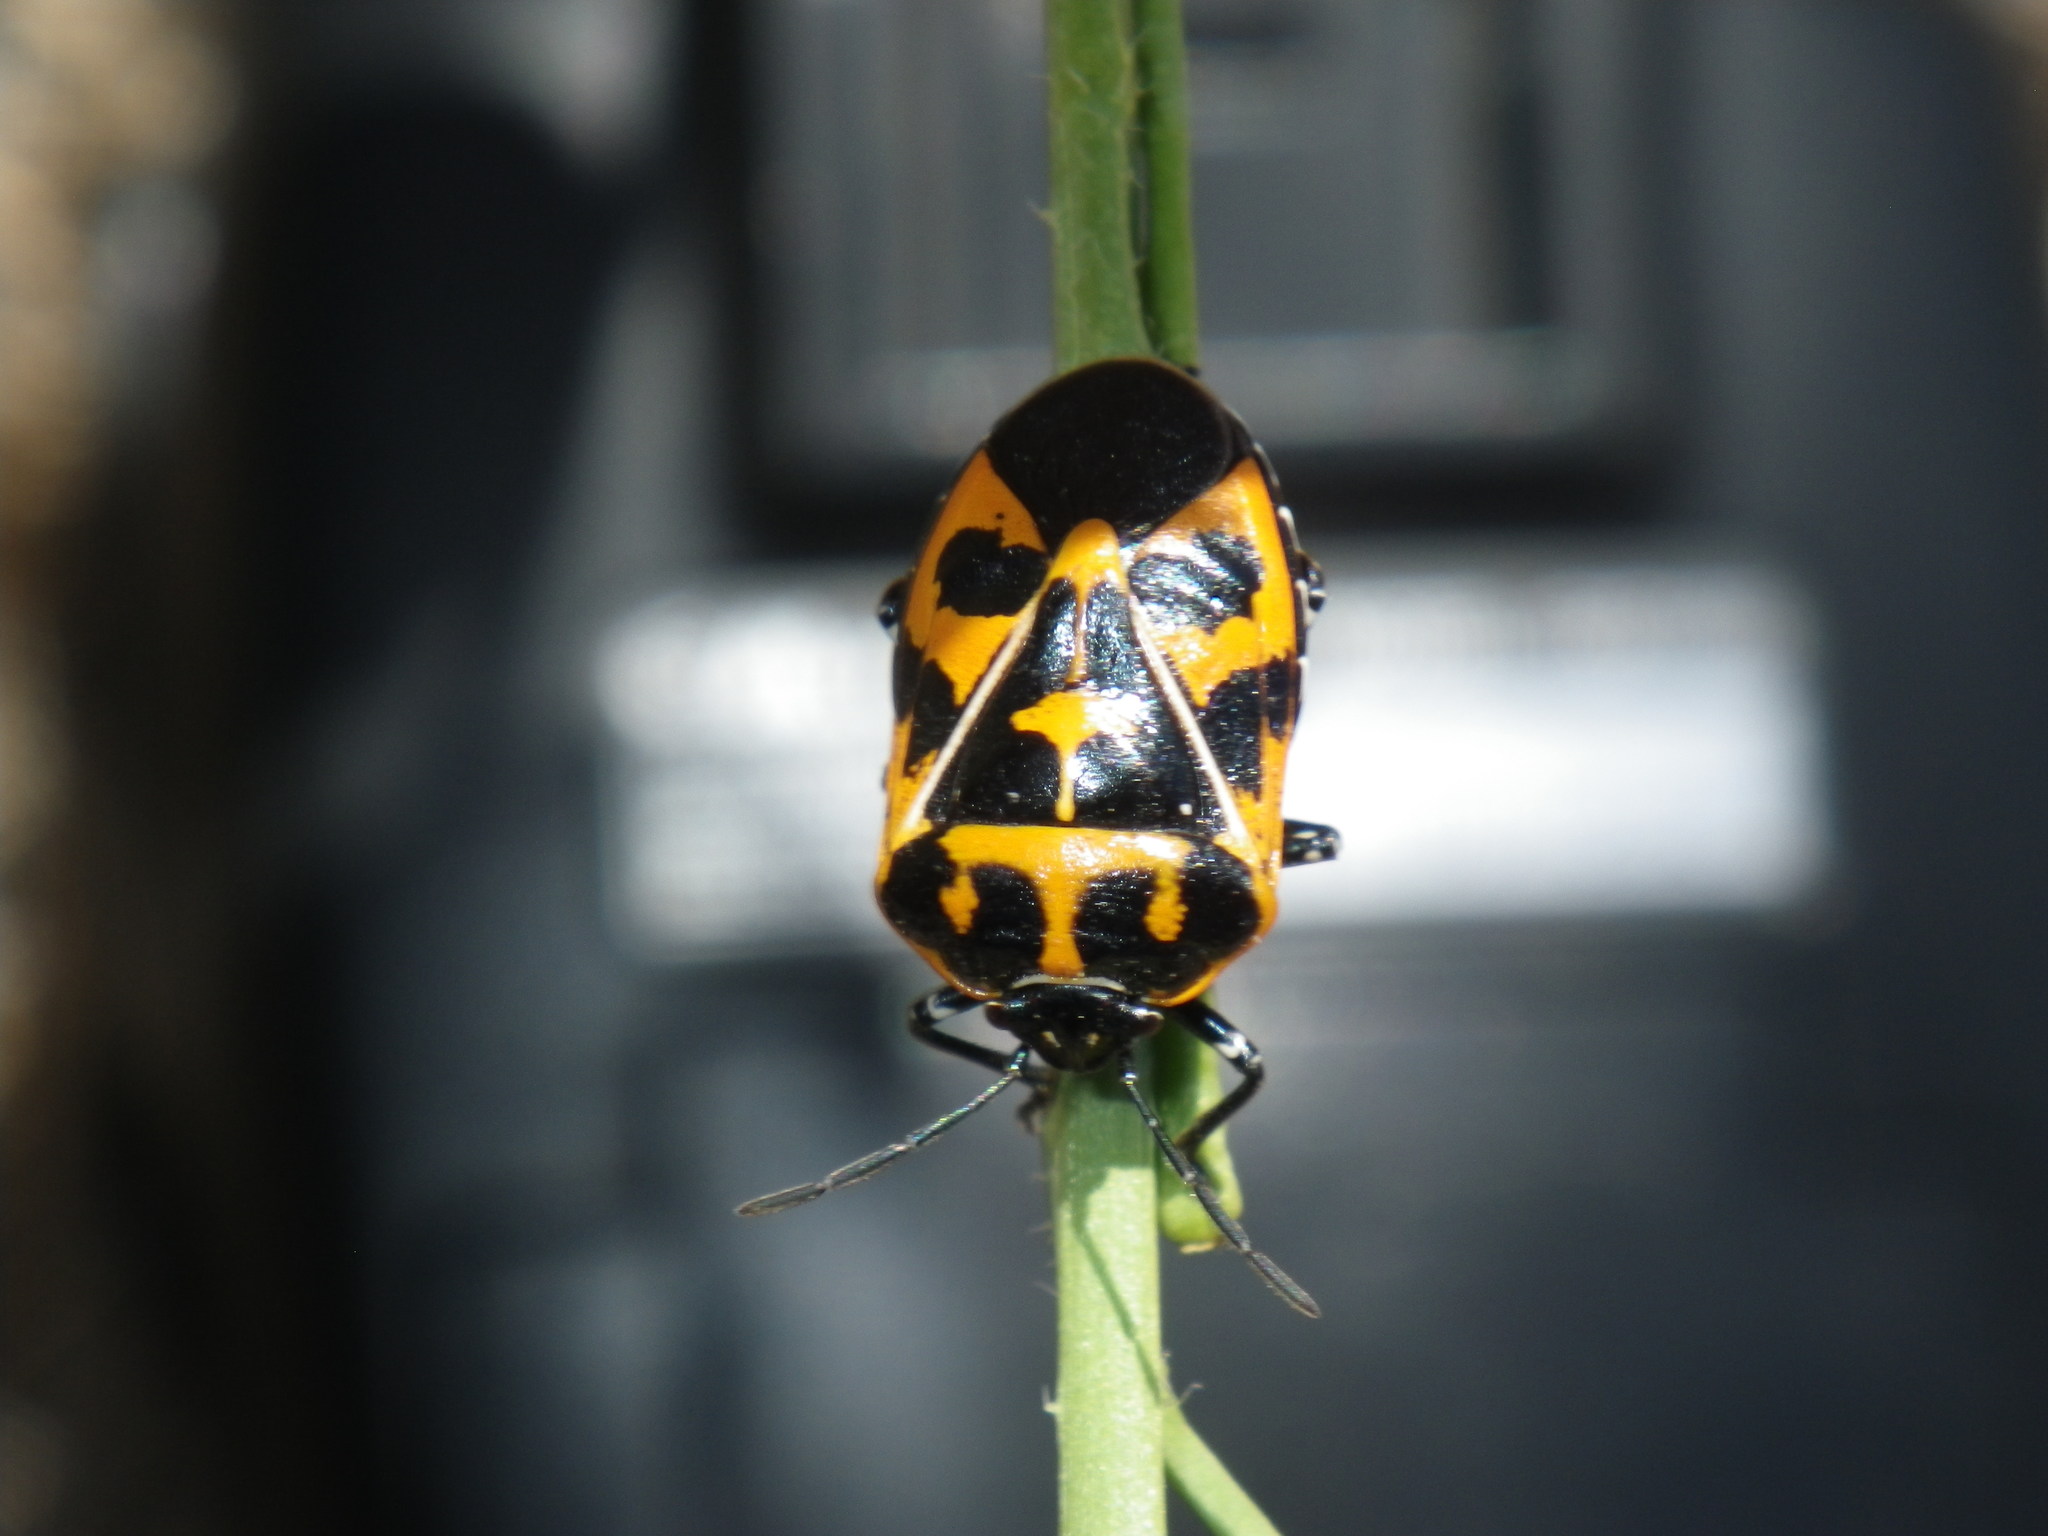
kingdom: Animalia
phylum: Arthropoda
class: Insecta
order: Hemiptera
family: Pentatomidae
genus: Murgantia
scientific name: Murgantia histrionica
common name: Harlequin bug
